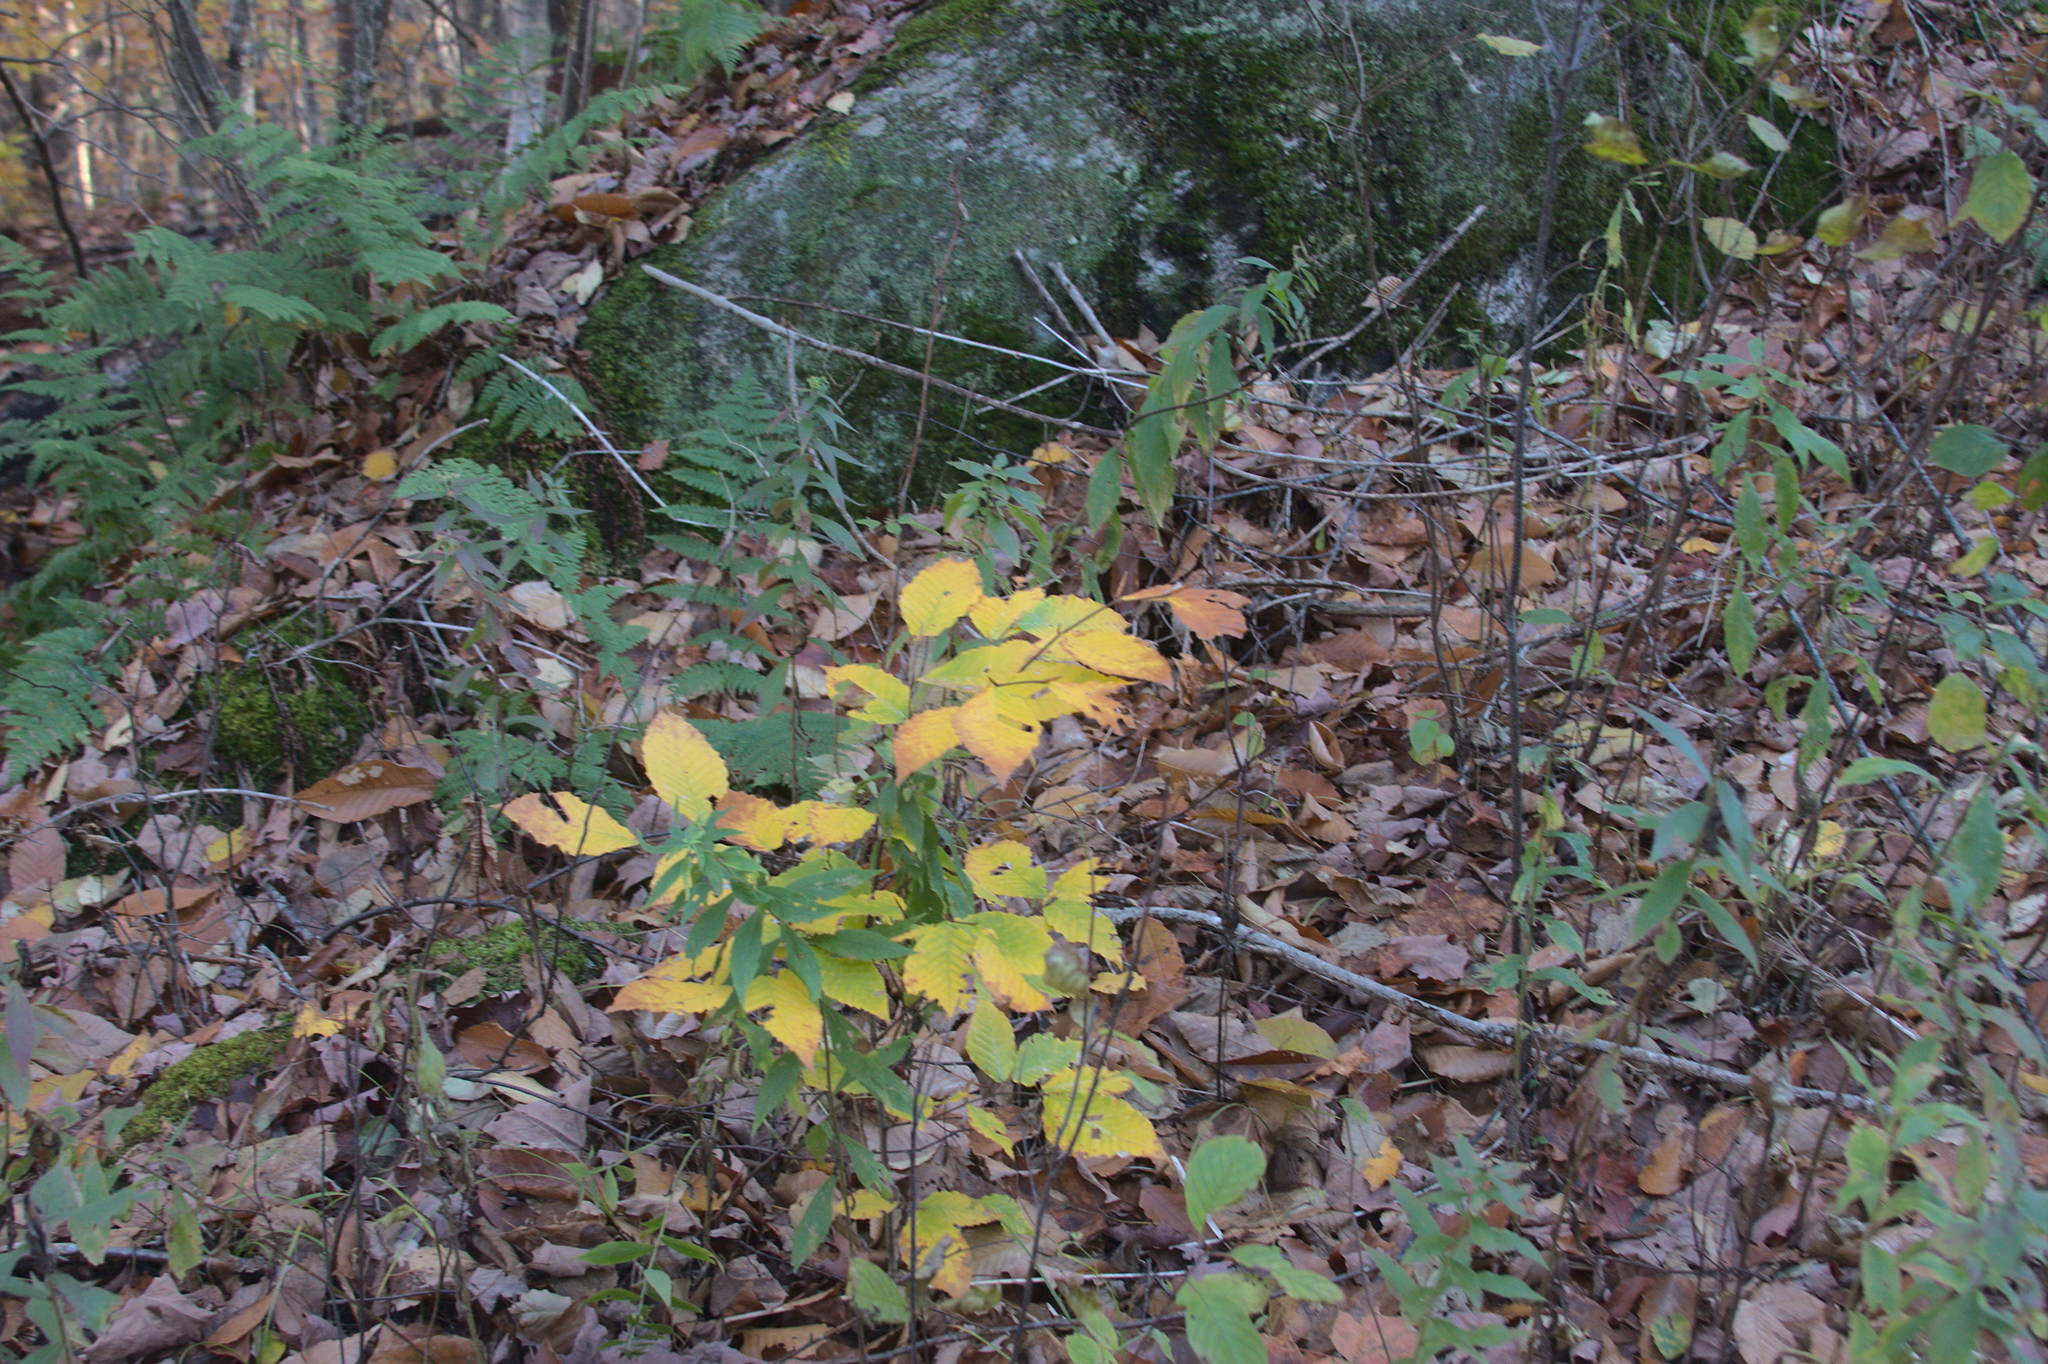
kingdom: Plantae
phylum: Tracheophyta
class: Magnoliopsida
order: Fagales
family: Fagaceae
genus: Fagus
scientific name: Fagus grandifolia
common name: American beech
